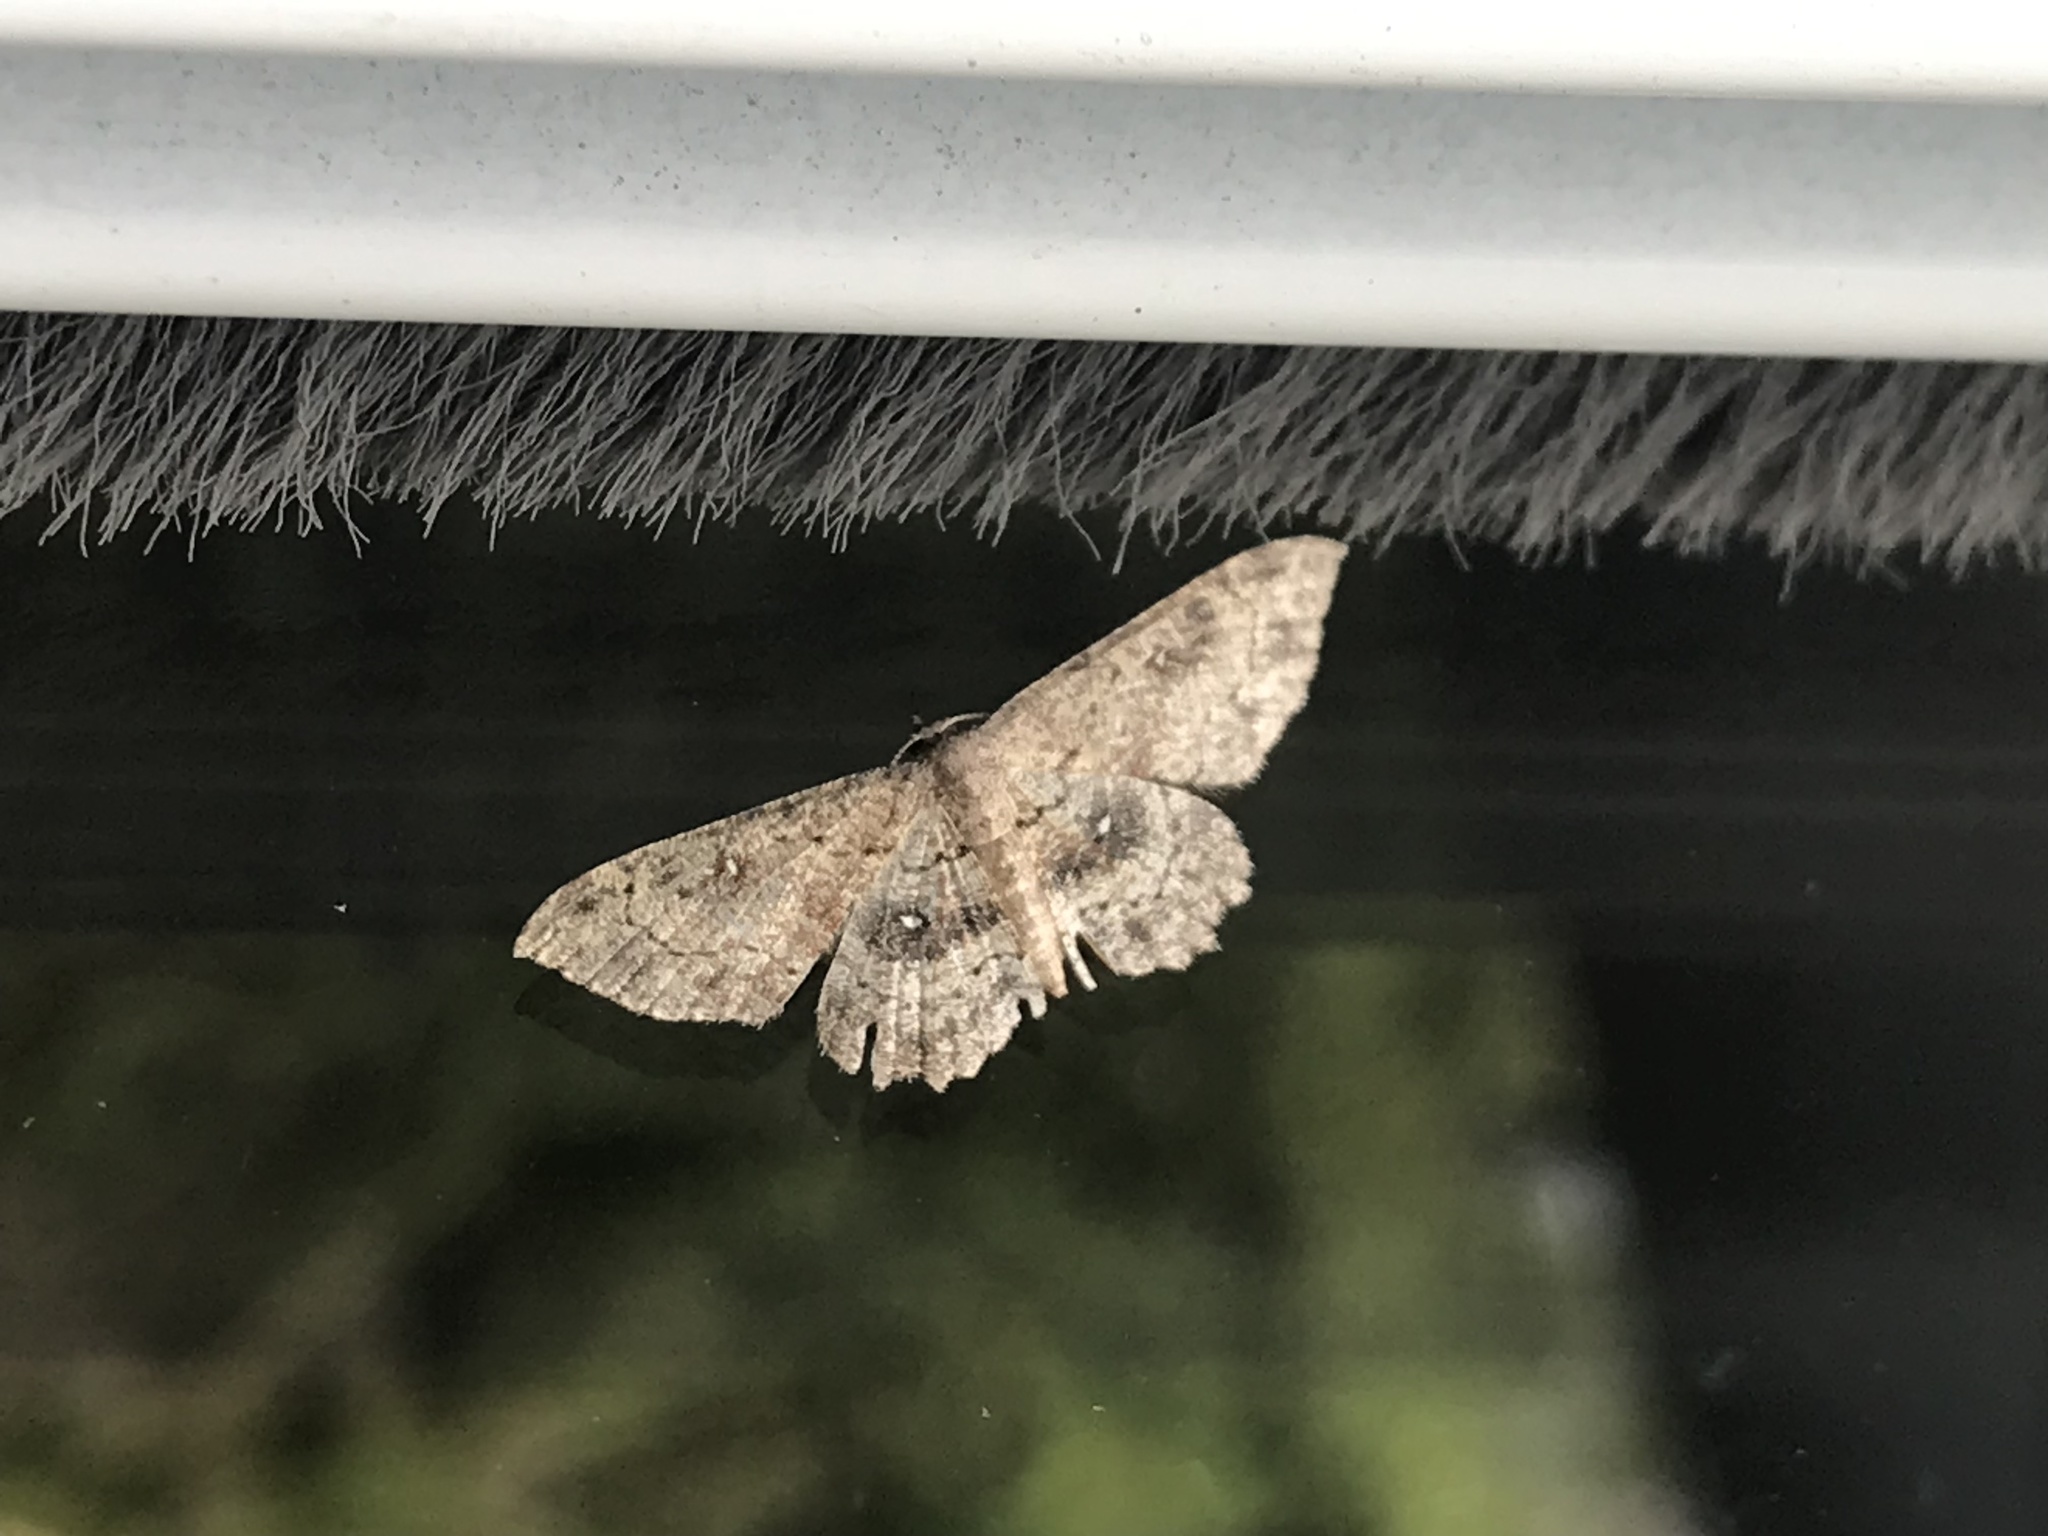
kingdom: Animalia
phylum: Arthropoda
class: Insecta
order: Lepidoptera
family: Geometridae
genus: Cyclophora
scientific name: Cyclophora nanaria
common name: Cankerworm
